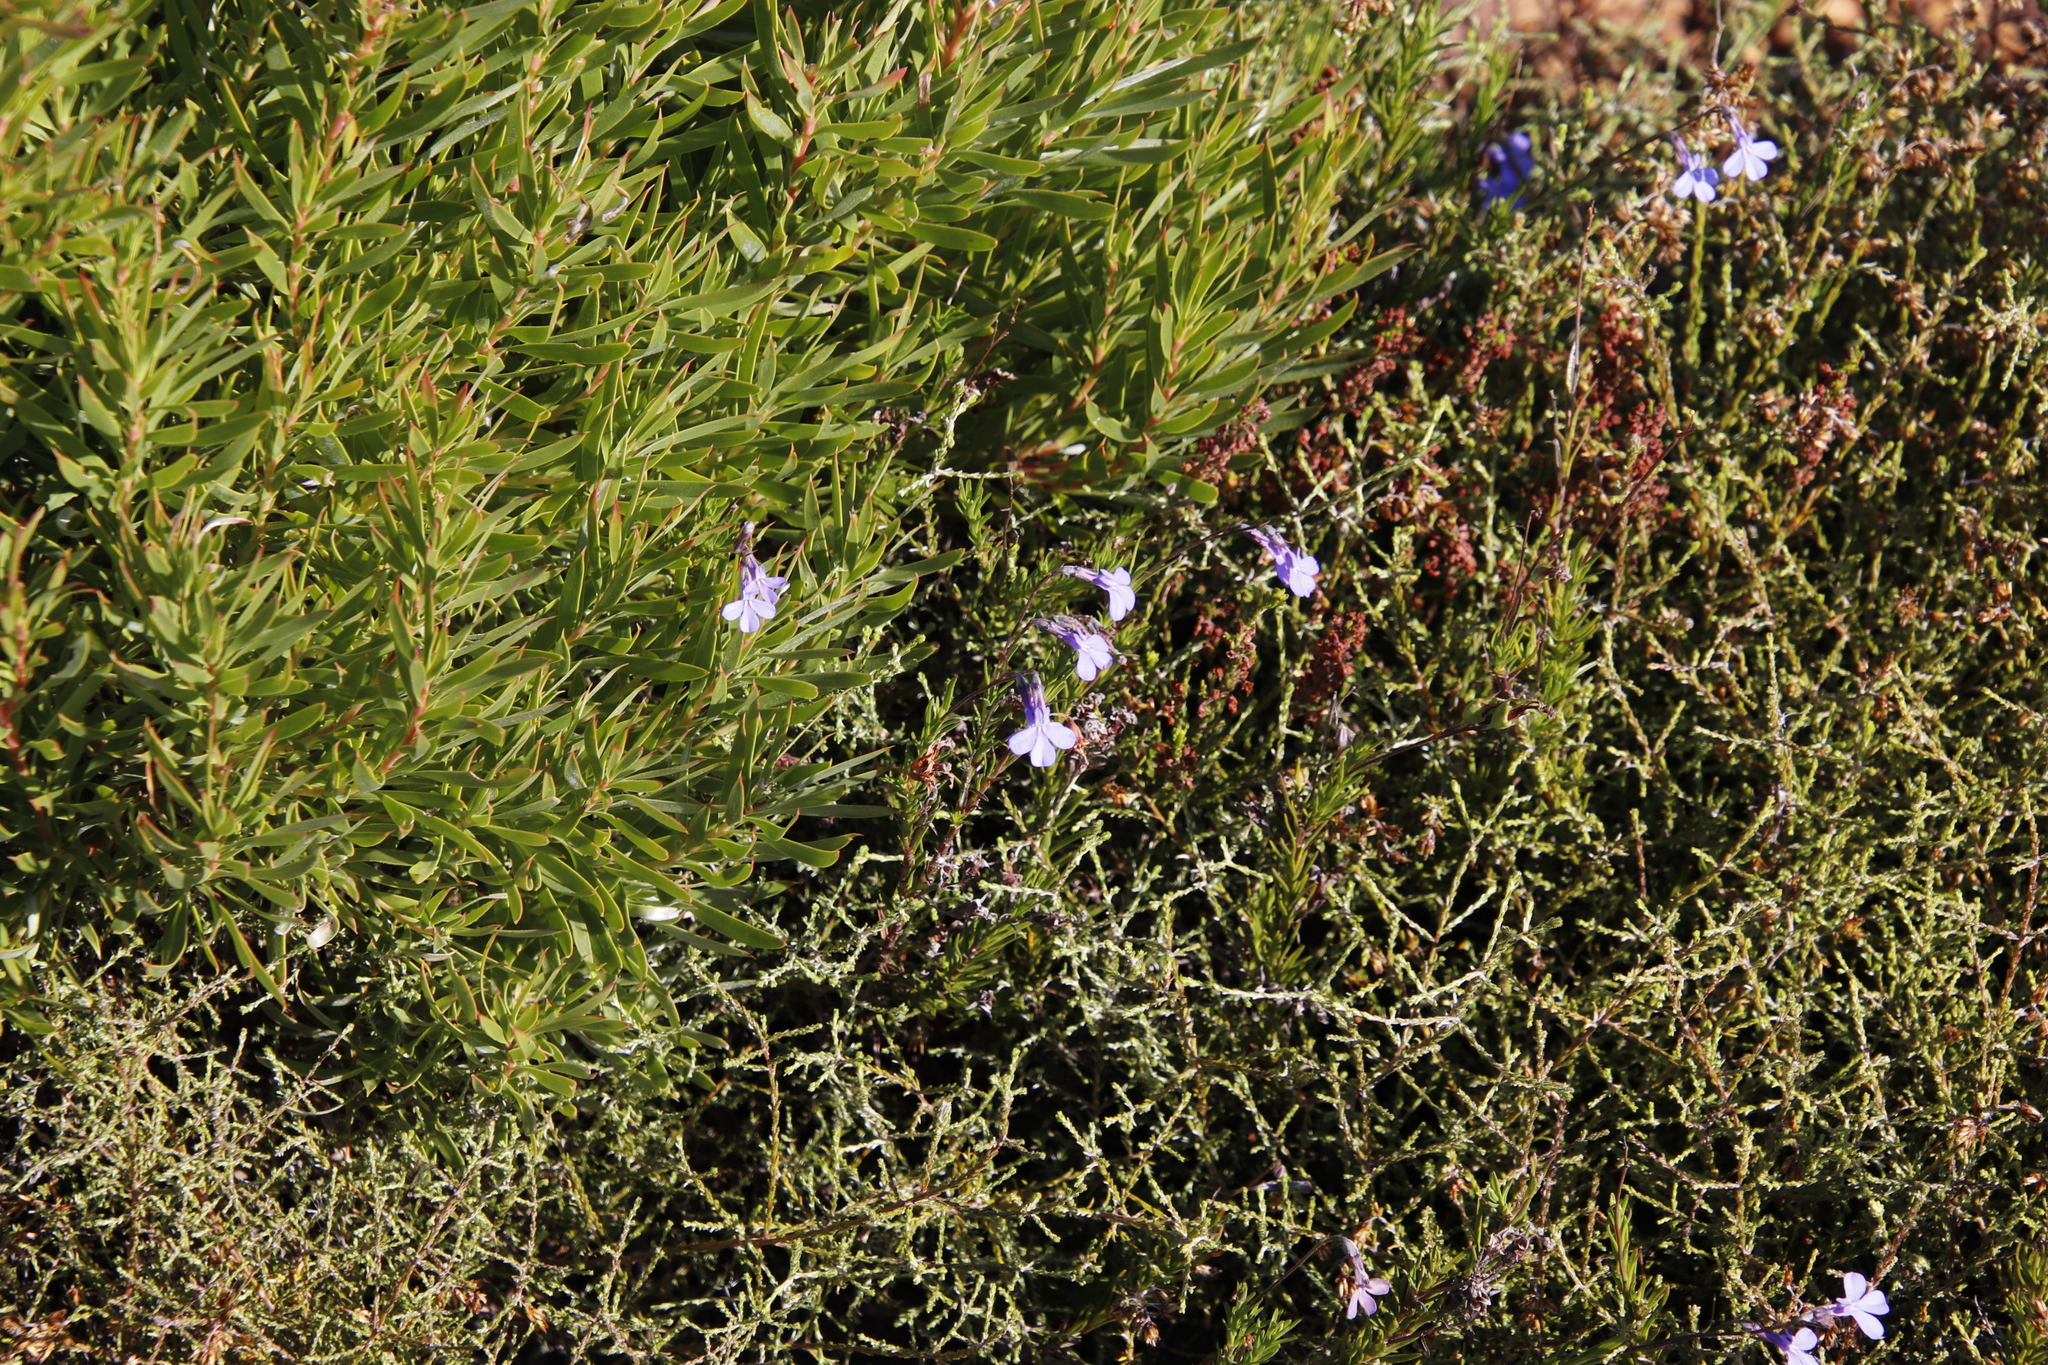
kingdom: Plantae
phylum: Tracheophyta
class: Magnoliopsida
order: Asterales
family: Campanulaceae
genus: Lobelia
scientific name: Lobelia pinifolia
